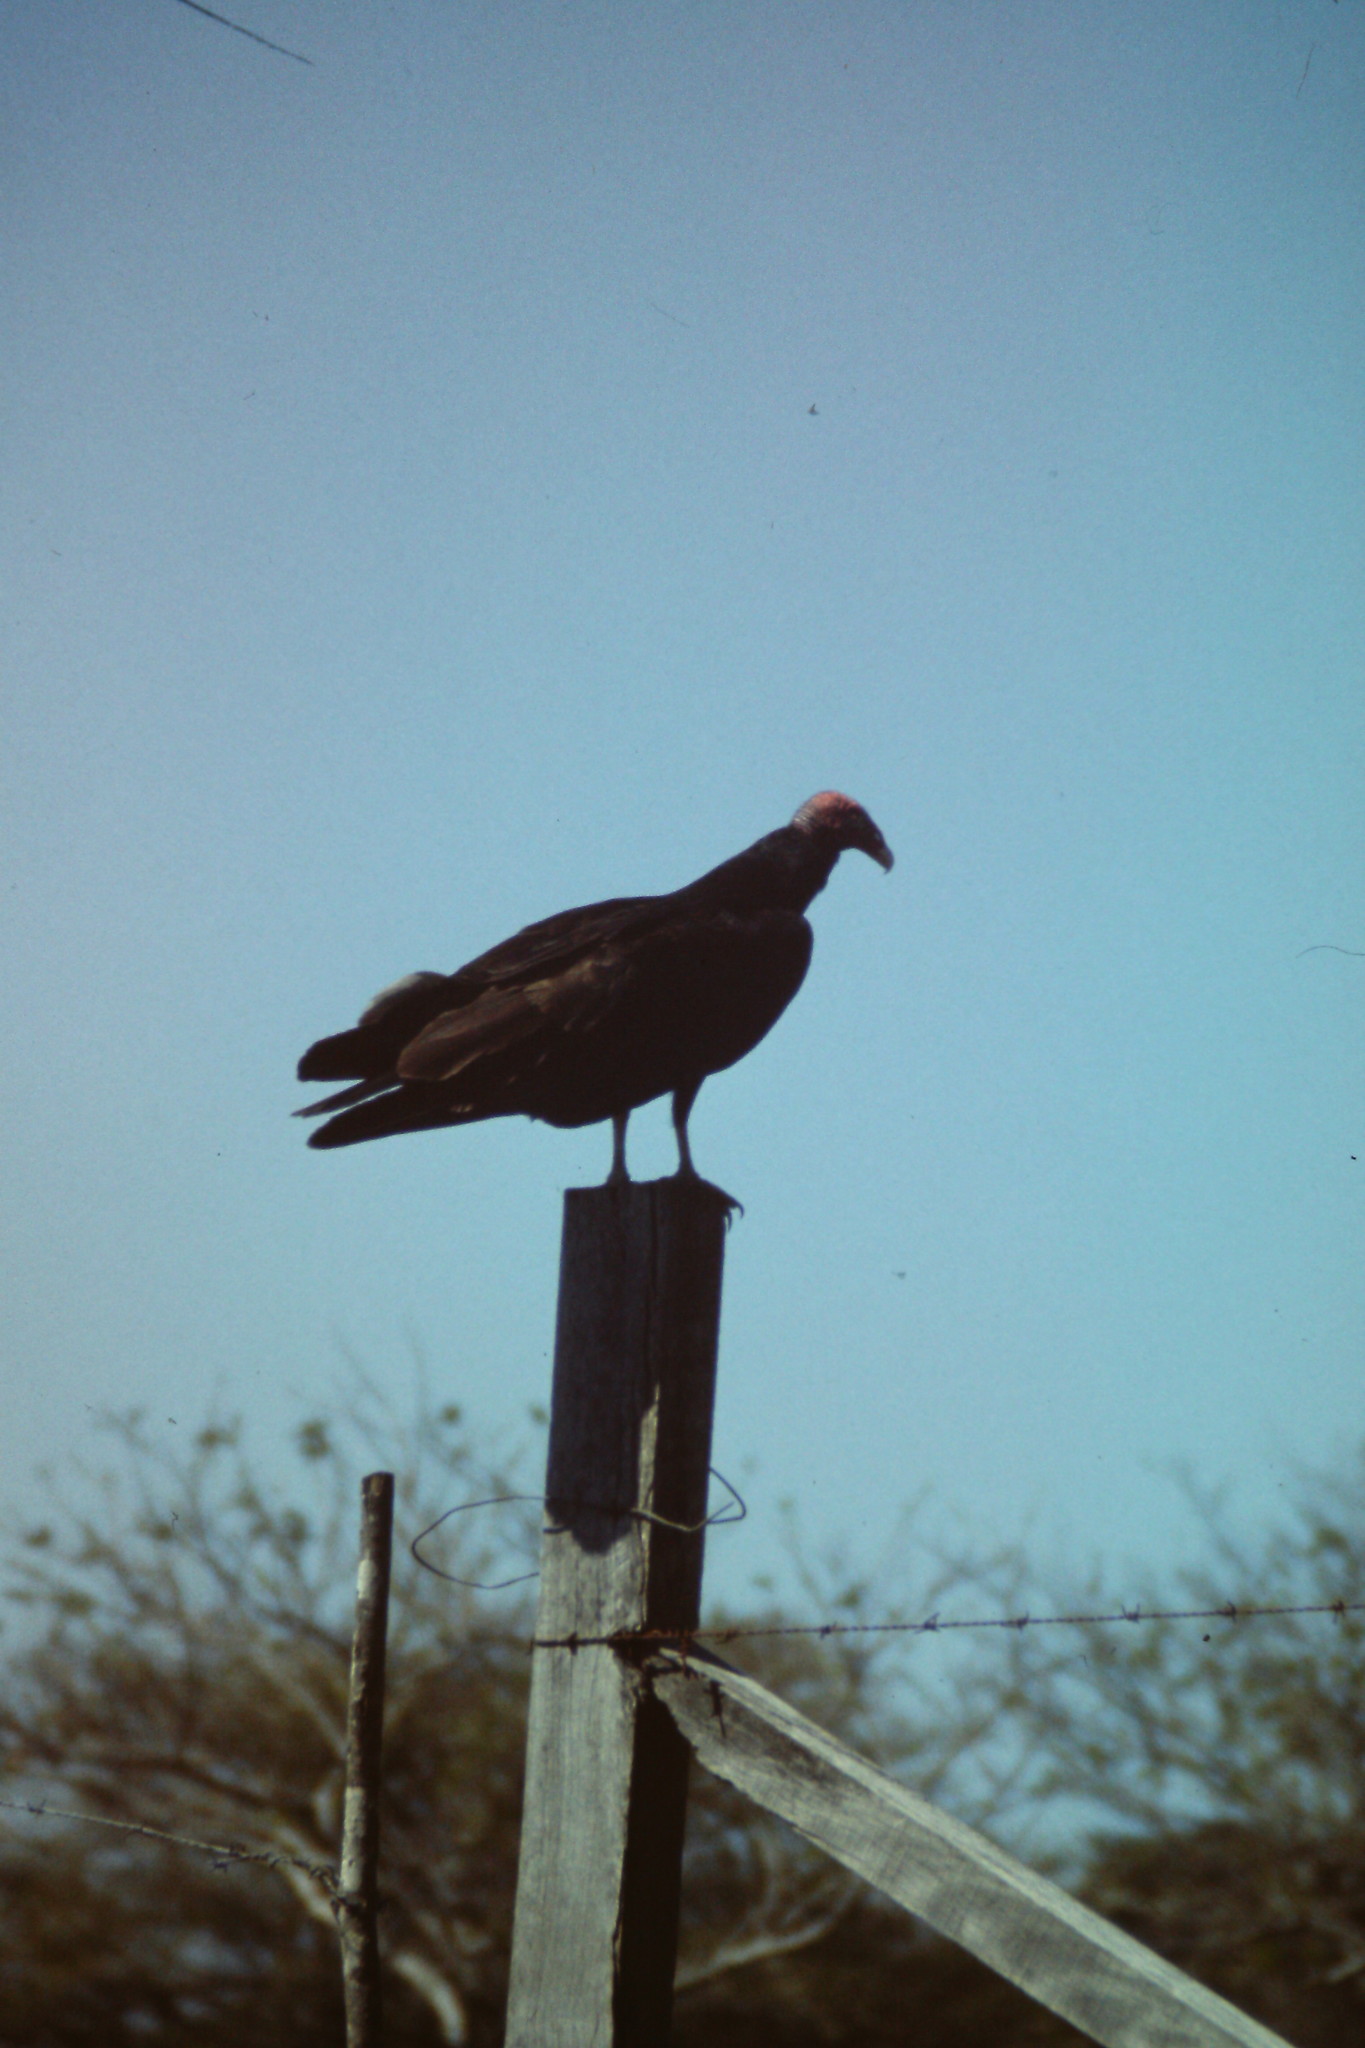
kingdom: Animalia
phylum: Chordata
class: Aves
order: Accipitriformes
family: Cathartidae
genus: Cathartes
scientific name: Cathartes aura
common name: Turkey vulture
